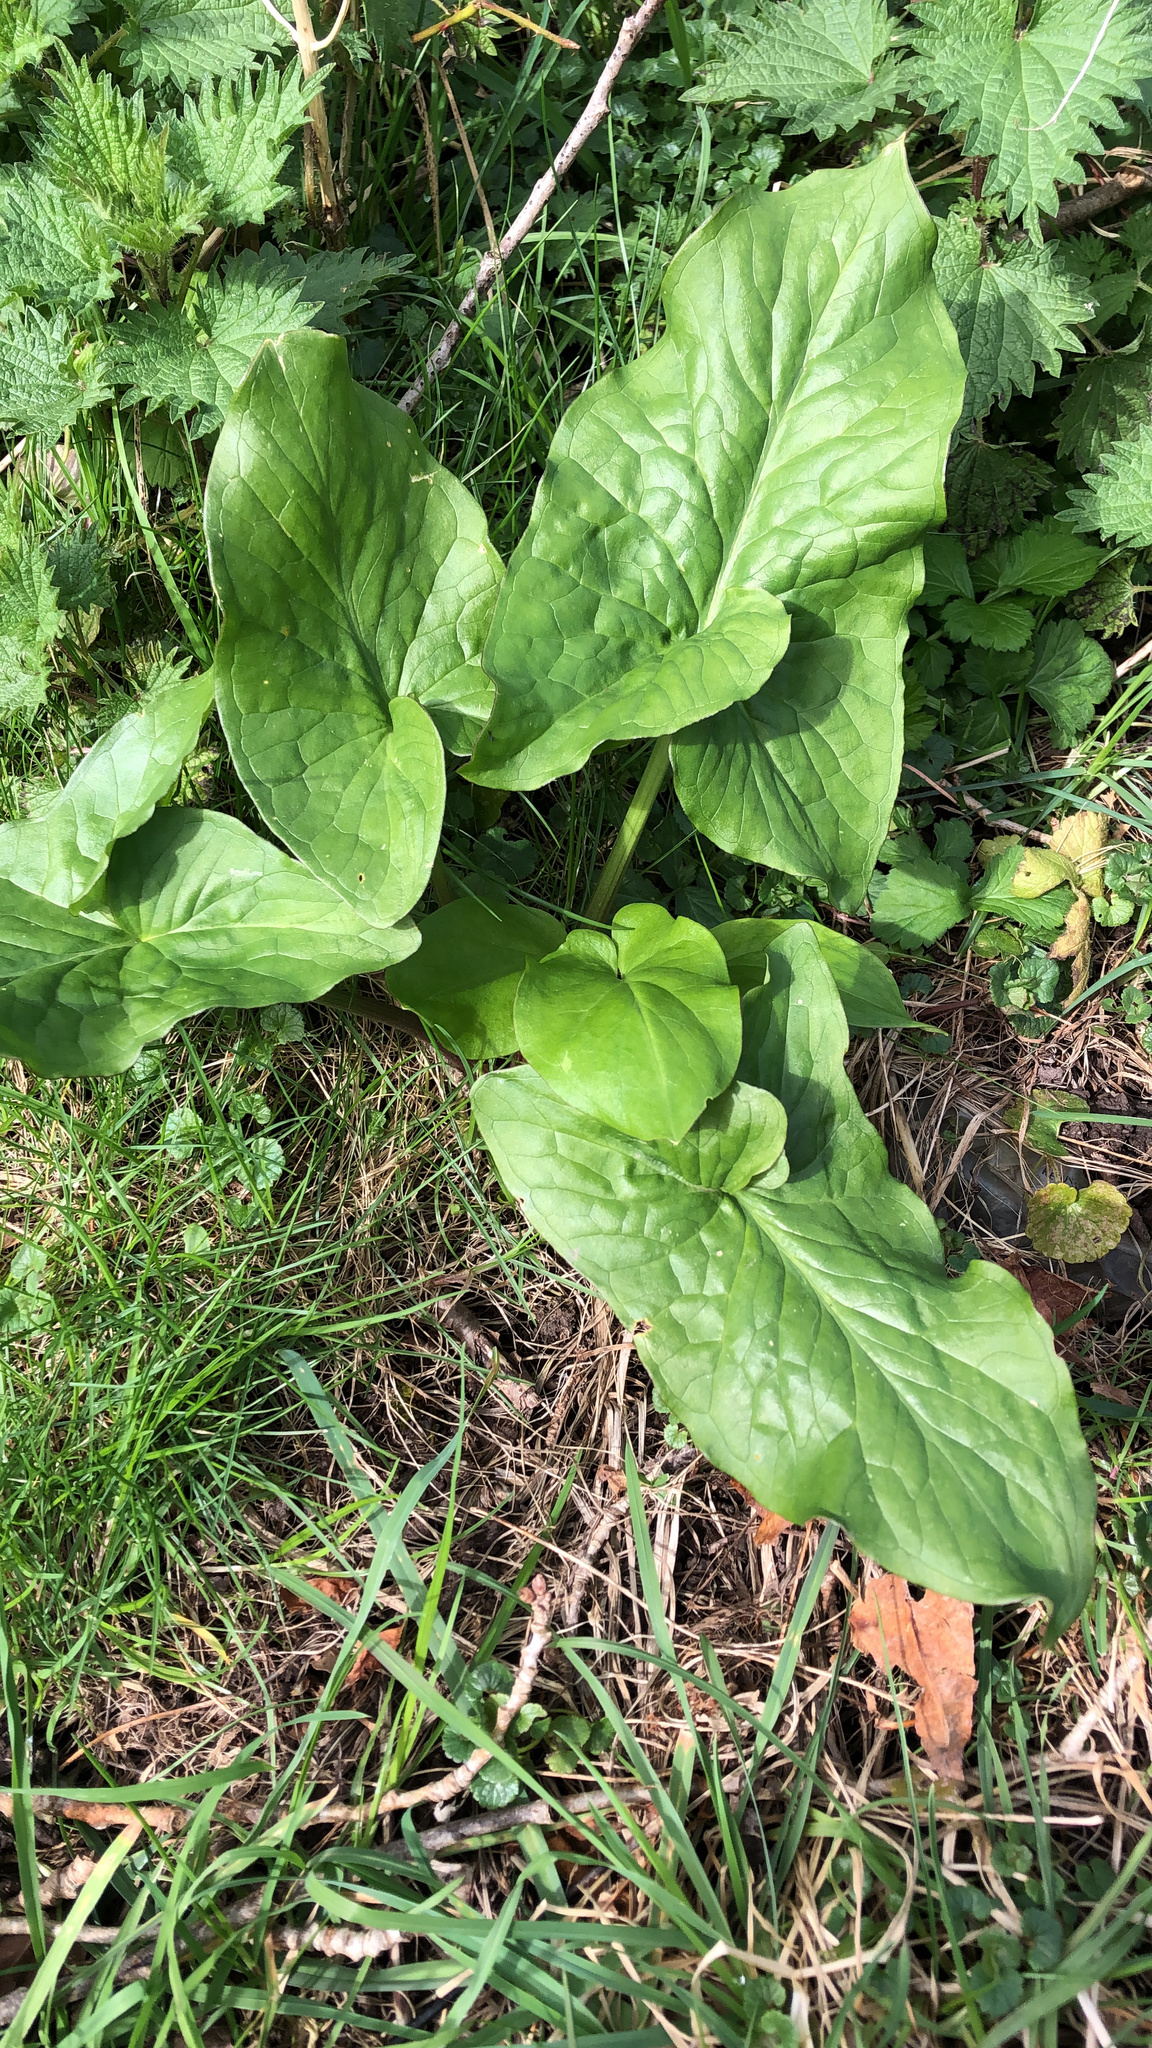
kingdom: Plantae
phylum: Tracheophyta
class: Liliopsida
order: Alismatales
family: Araceae
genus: Arum
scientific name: Arum maculatum
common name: Lords-and-ladies
